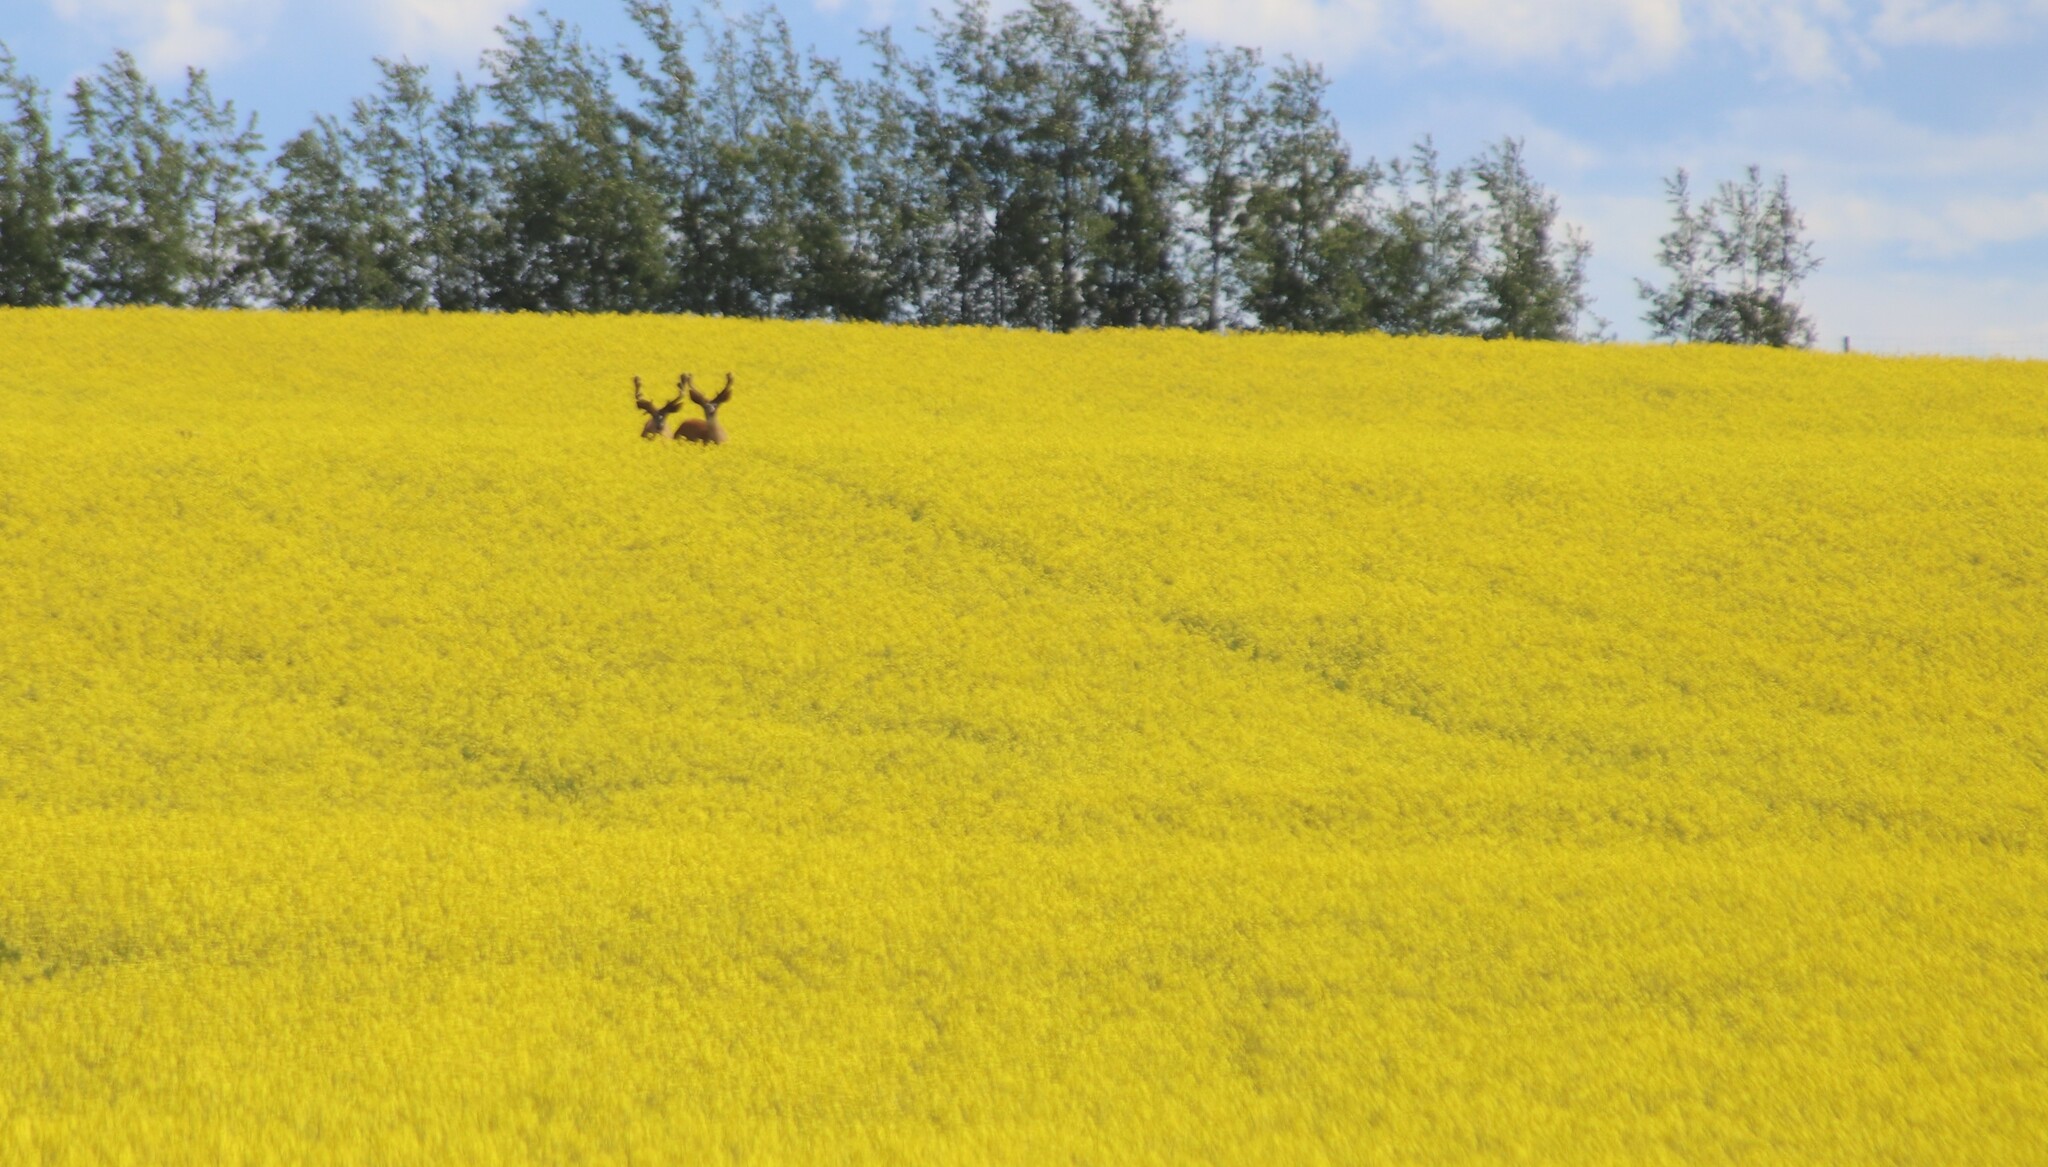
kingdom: Animalia
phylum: Chordata
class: Mammalia
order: Artiodactyla
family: Cervidae
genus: Odocoileus
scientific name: Odocoileus hemionus
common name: Mule deer
